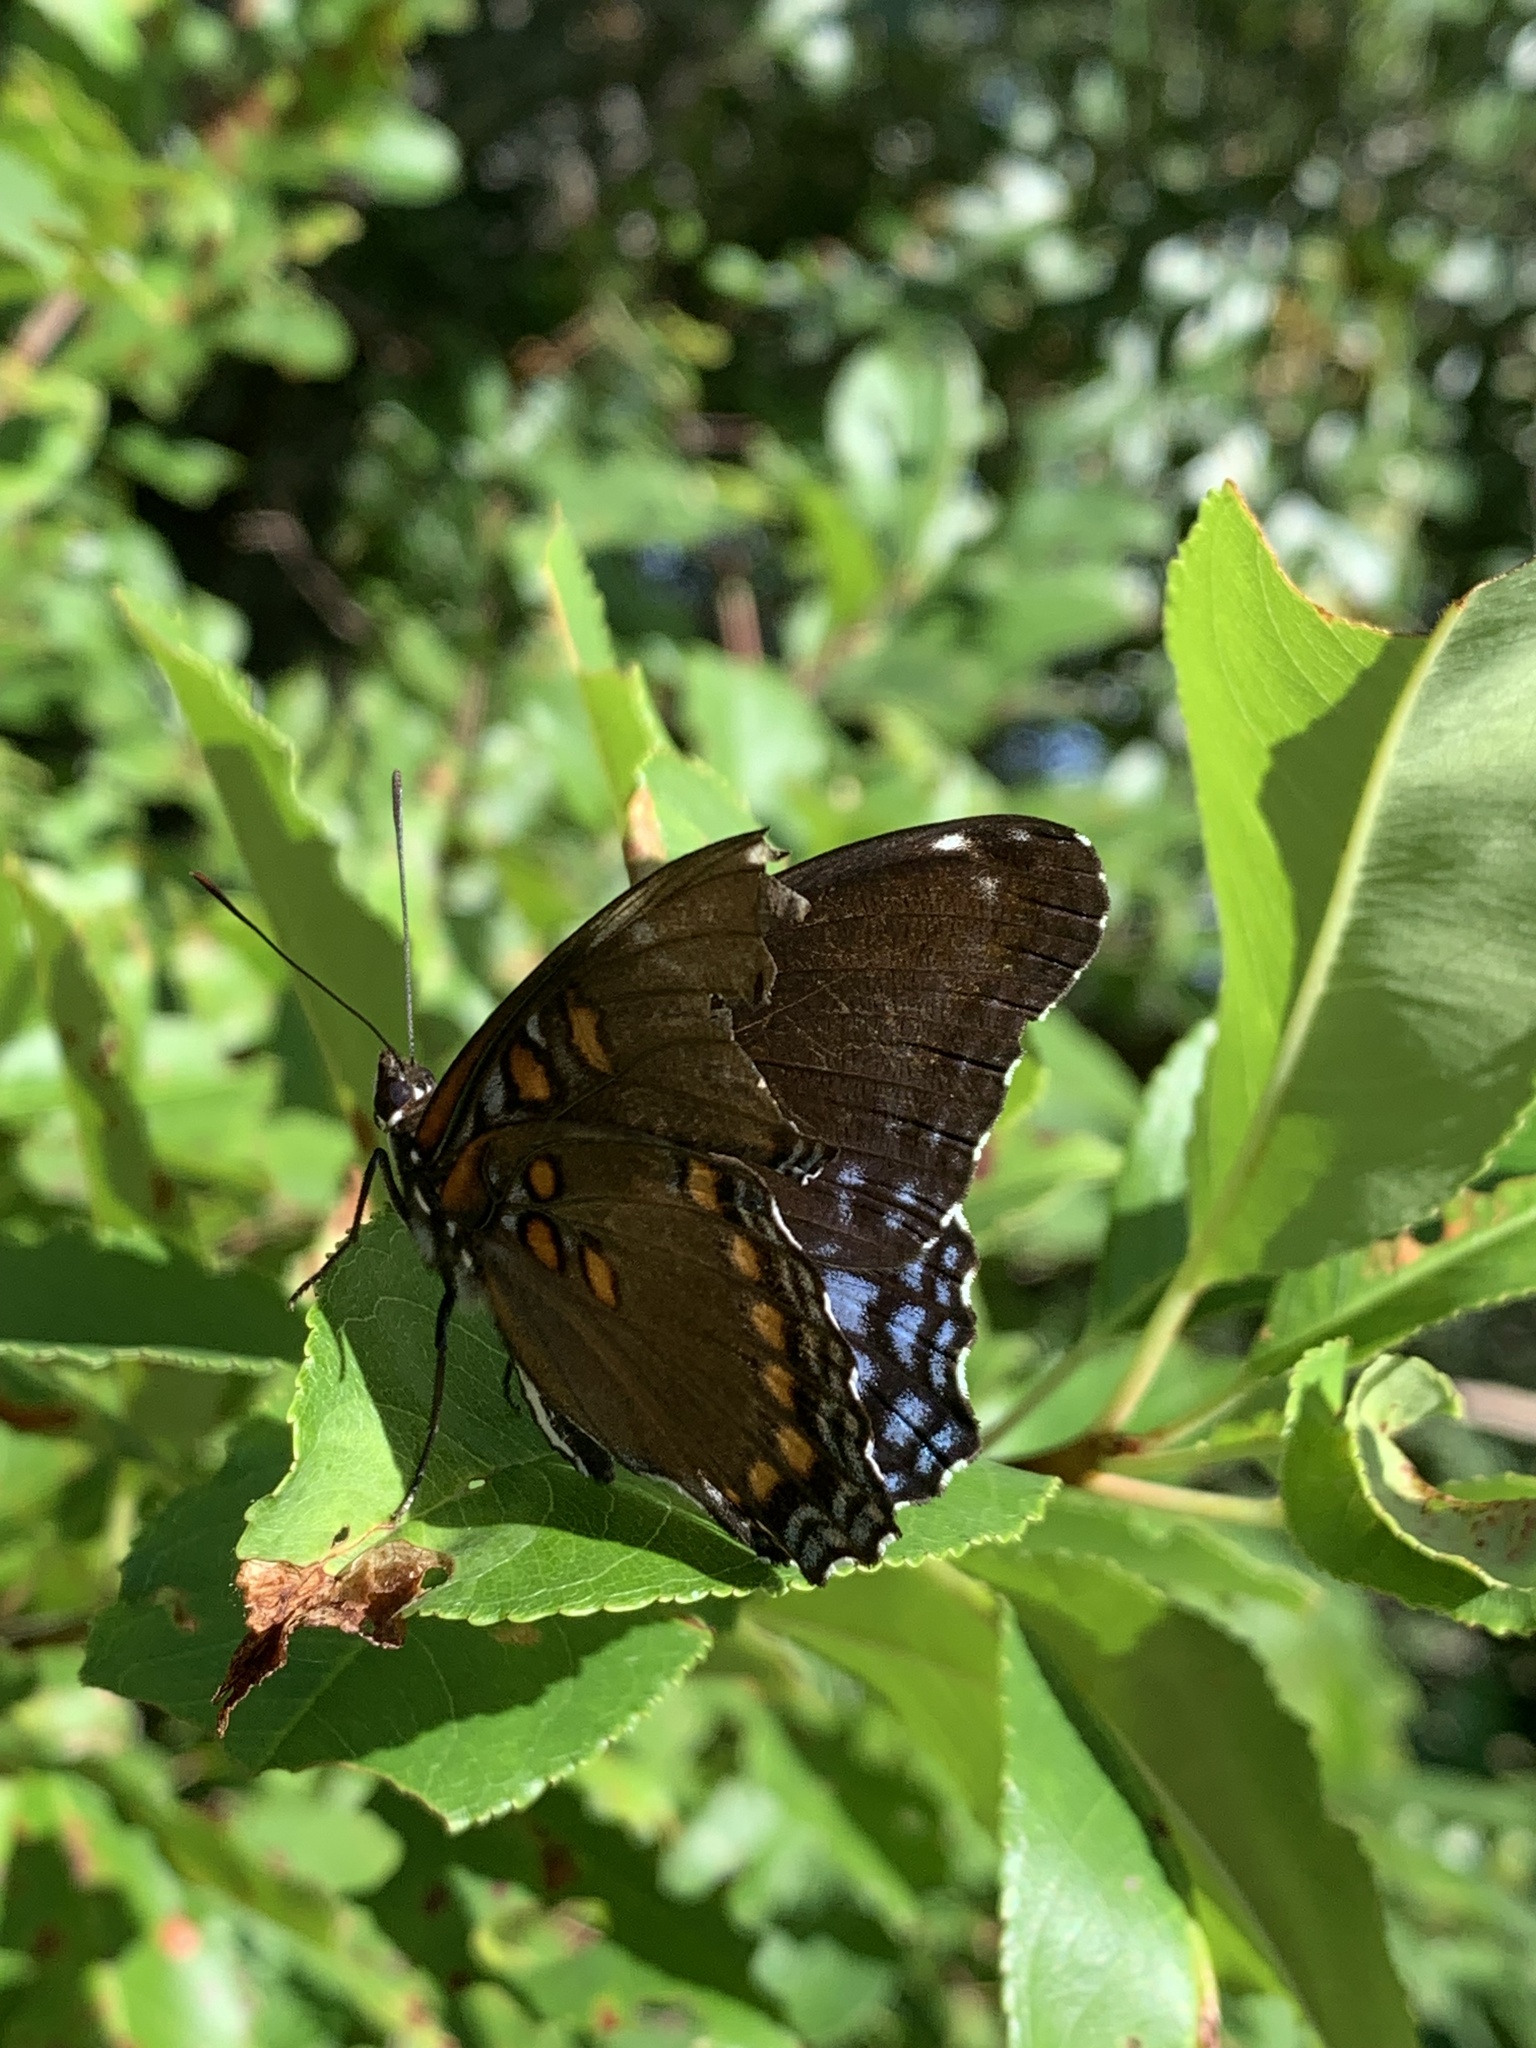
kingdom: Animalia
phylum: Arthropoda
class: Insecta
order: Lepidoptera
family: Nymphalidae
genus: Limenitis
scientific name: Limenitis astyanax
